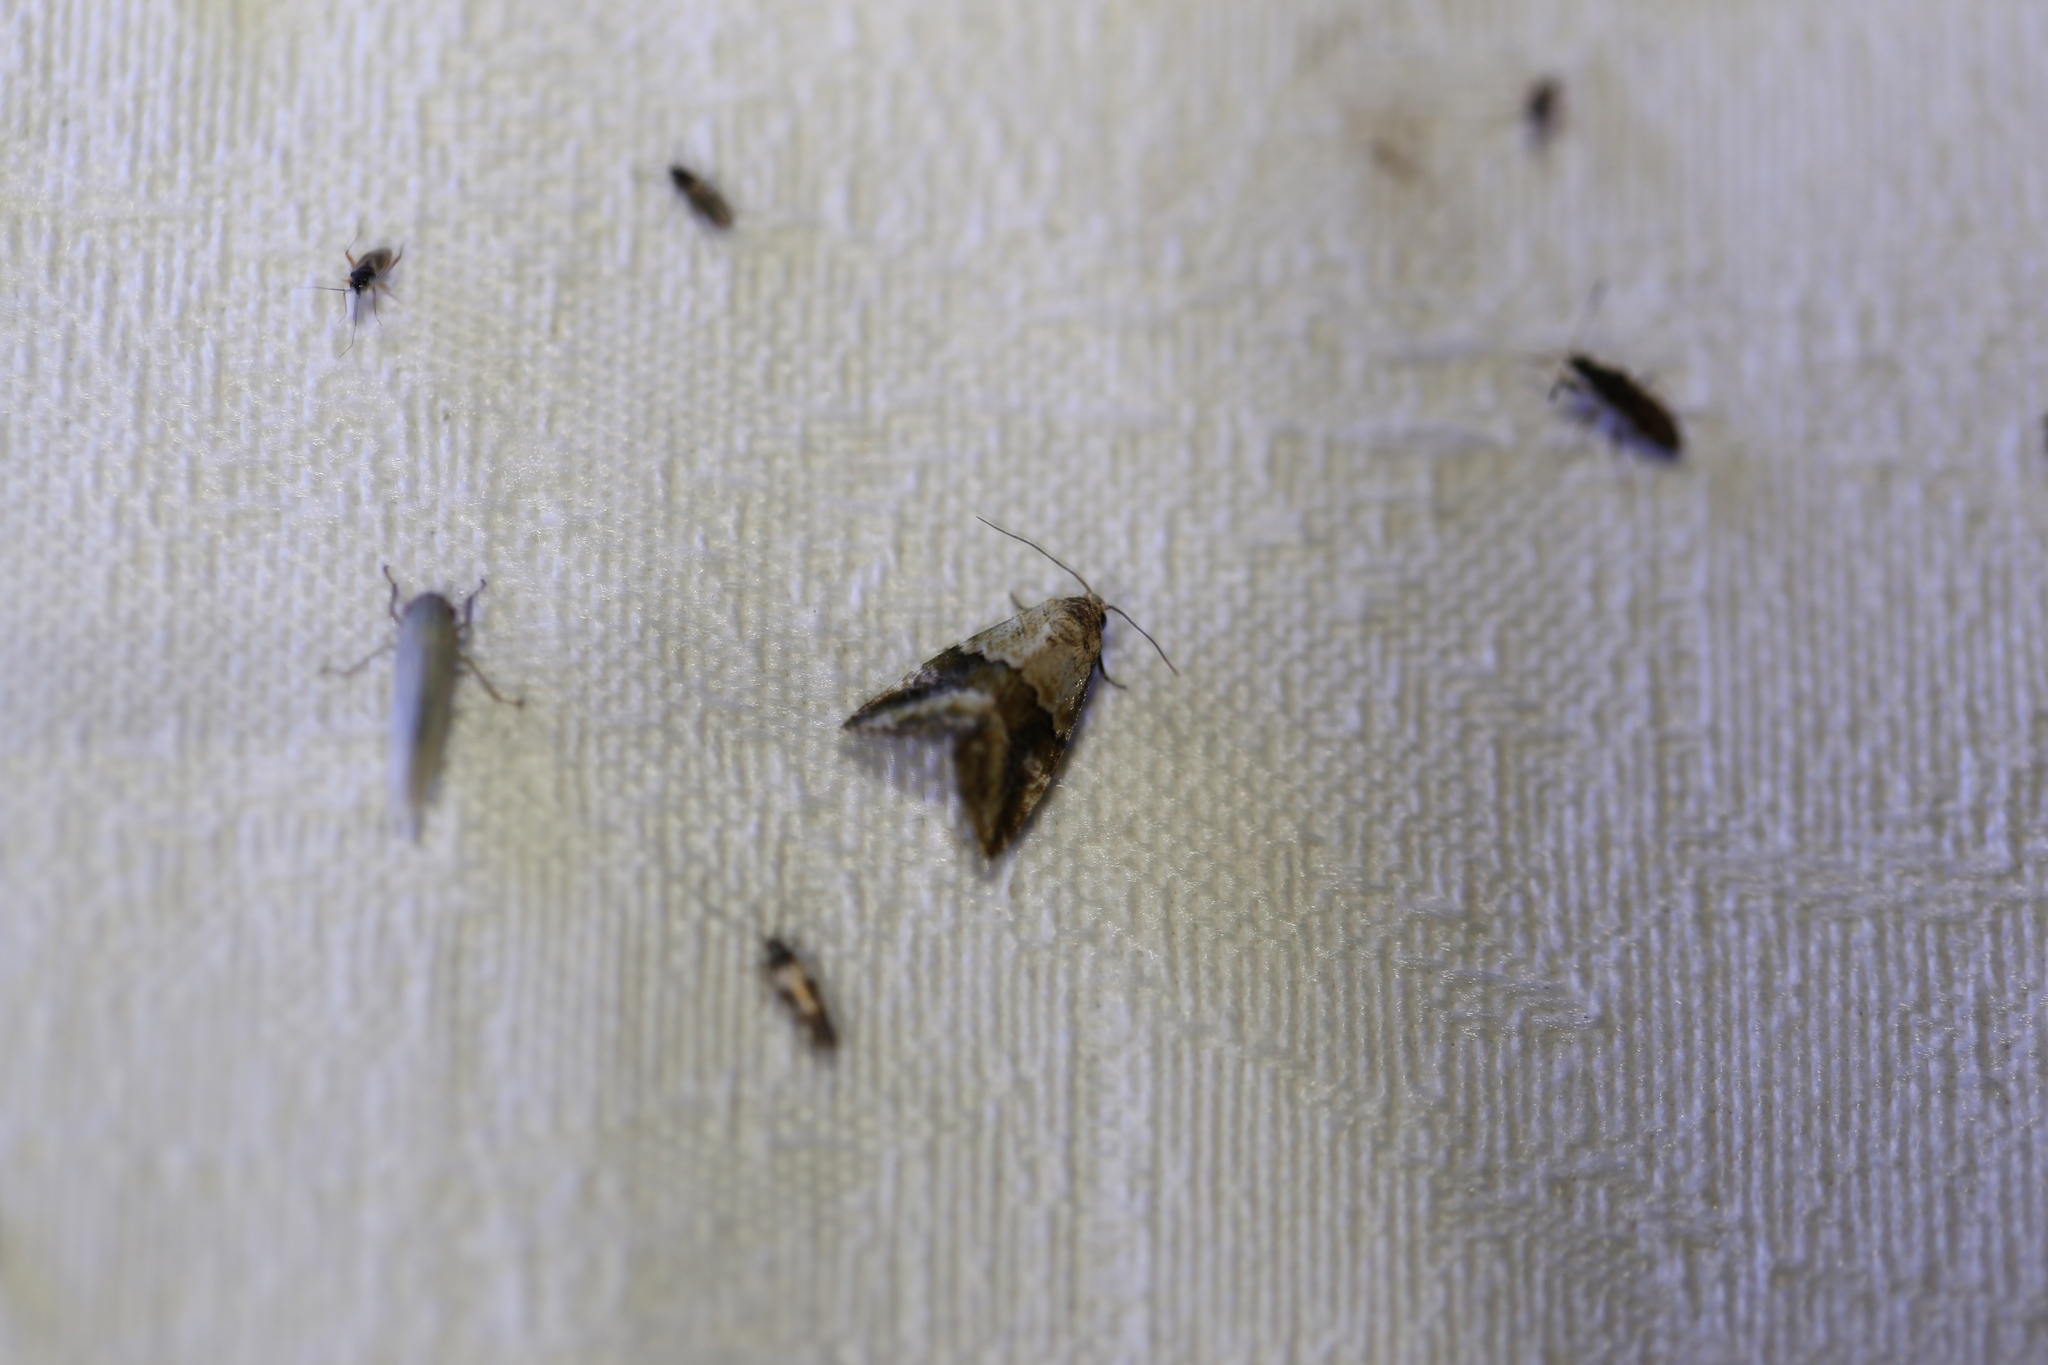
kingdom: Animalia
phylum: Arthropoda
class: Insecta
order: Lepidoptera
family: Noctuidae
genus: Maliattha
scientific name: Maliattha amorpha
